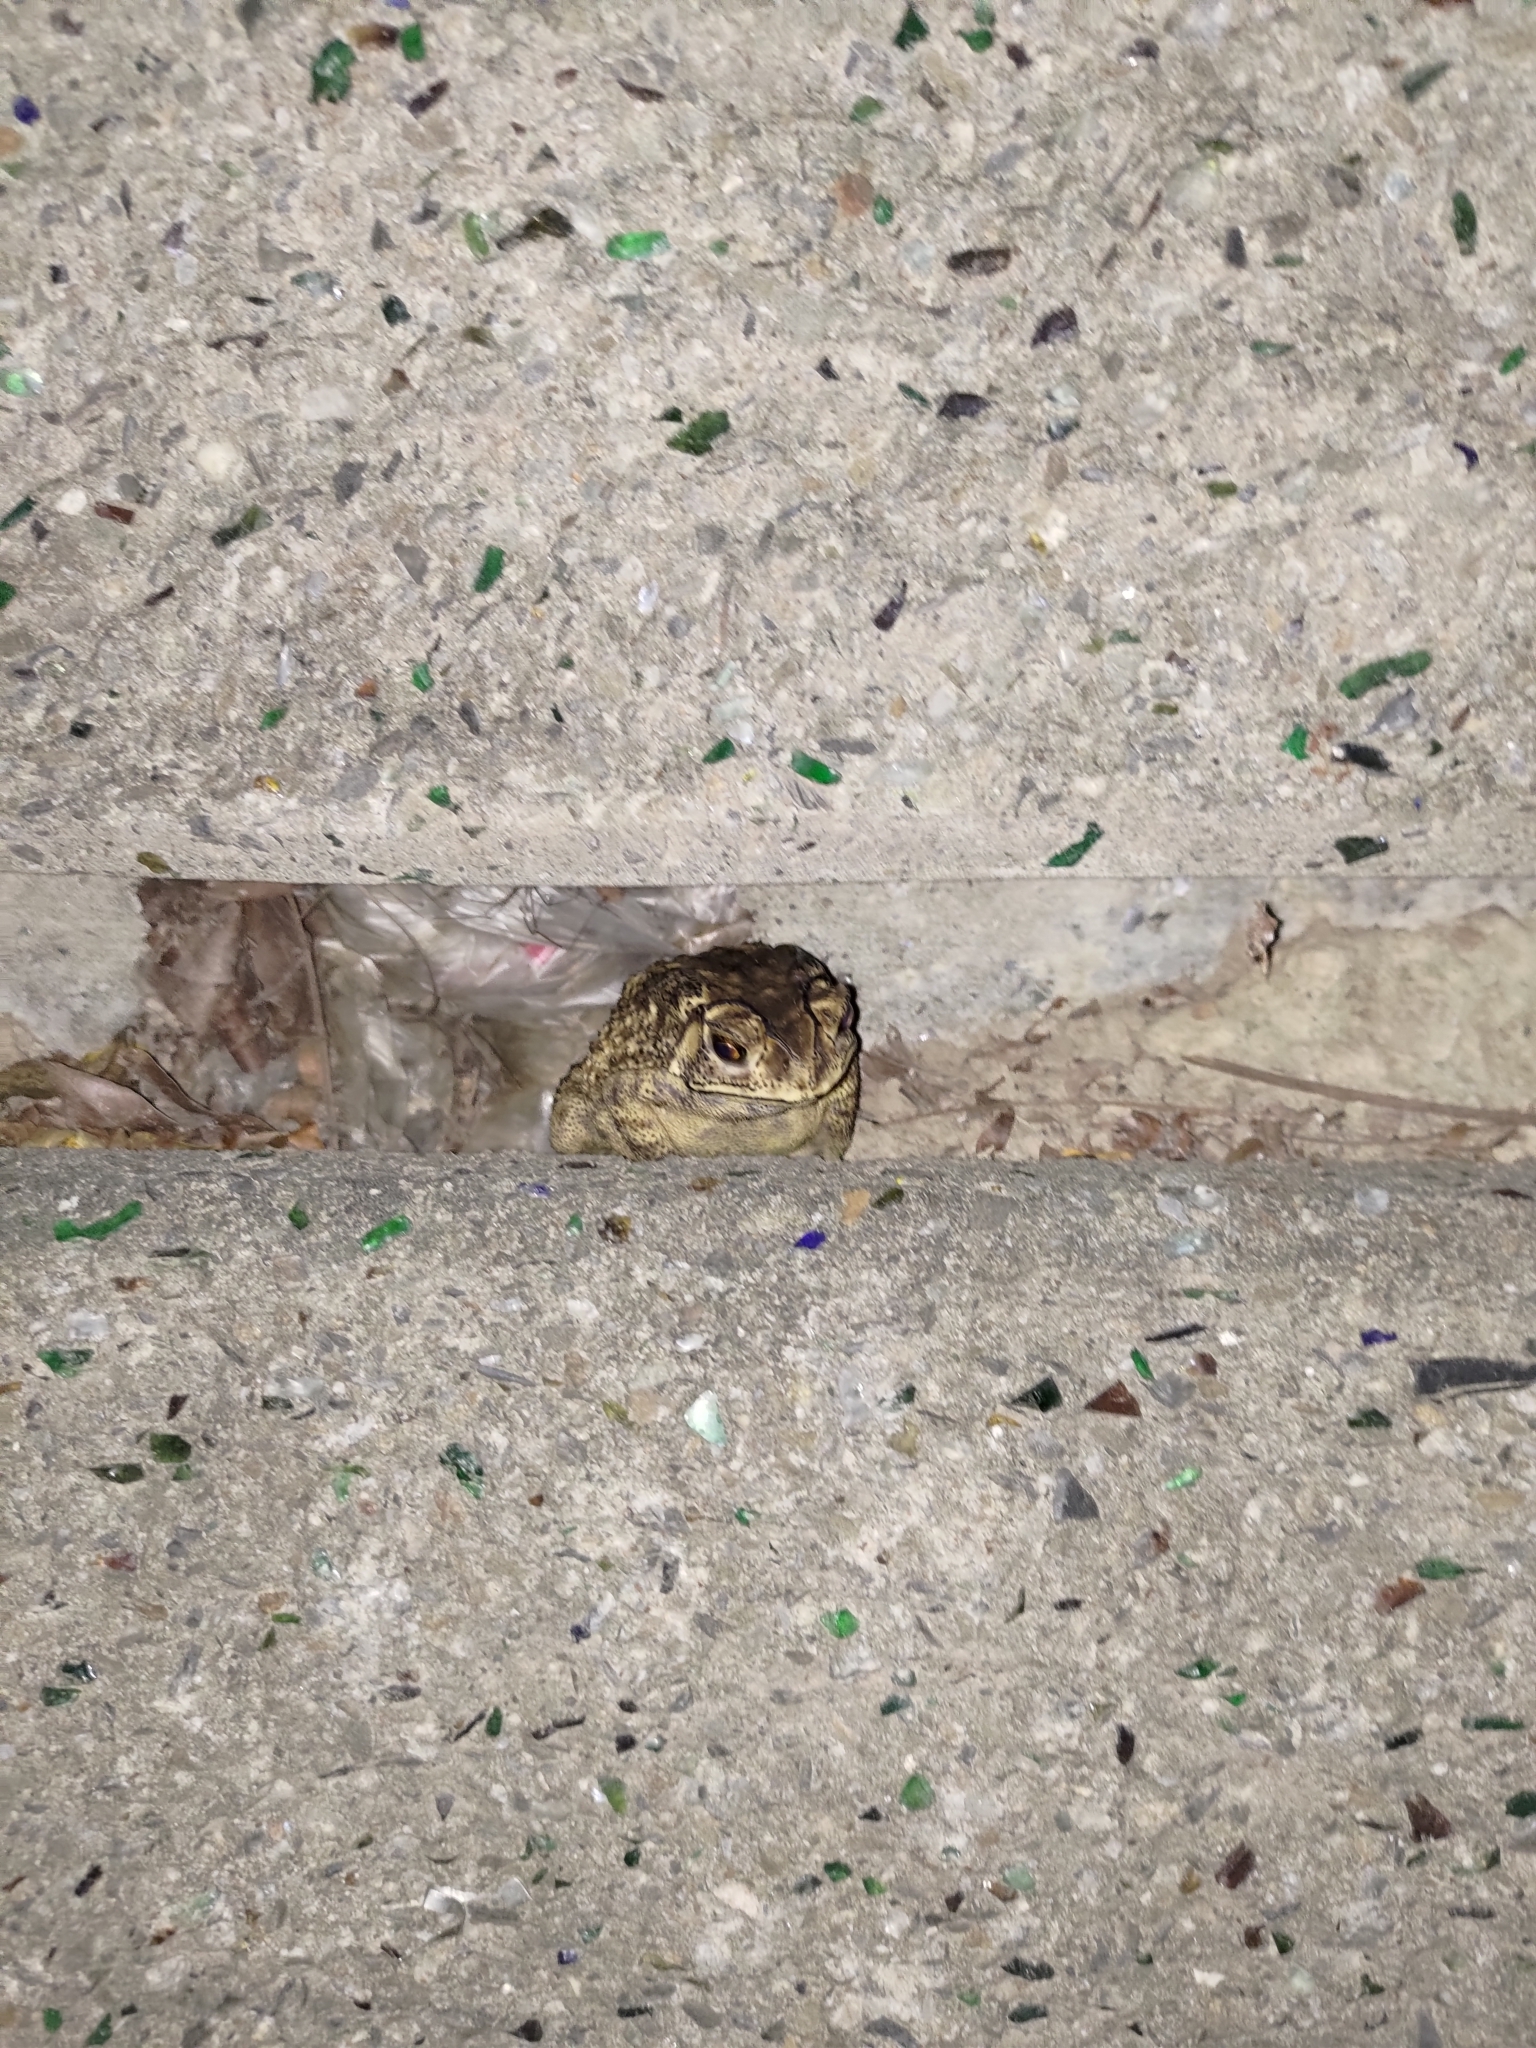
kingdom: Animalia
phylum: Chordata
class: Amphibia
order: Anura
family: Bufonidae
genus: Duttaphrynus
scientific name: Duttaphrynus melanostictus
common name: Common sunda toad
